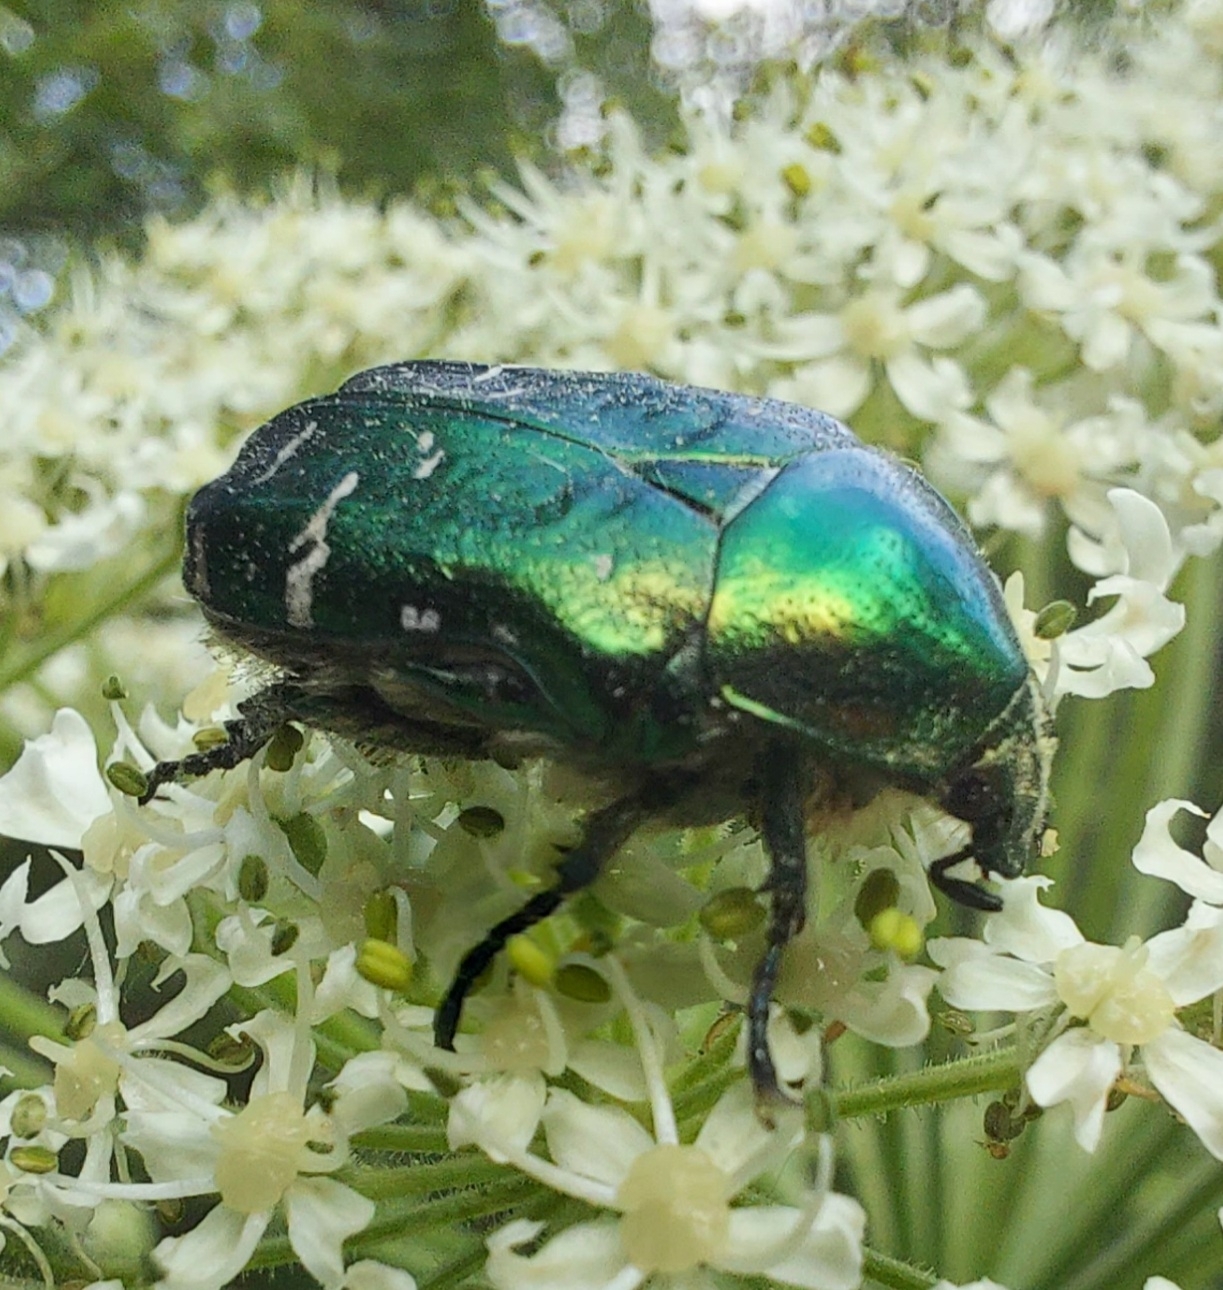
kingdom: Animalia
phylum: Arthropoda
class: Insecta
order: Coleoptera
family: Scarabaeidae
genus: Cetonia
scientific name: Cetonia aurata
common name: Rose chafer
